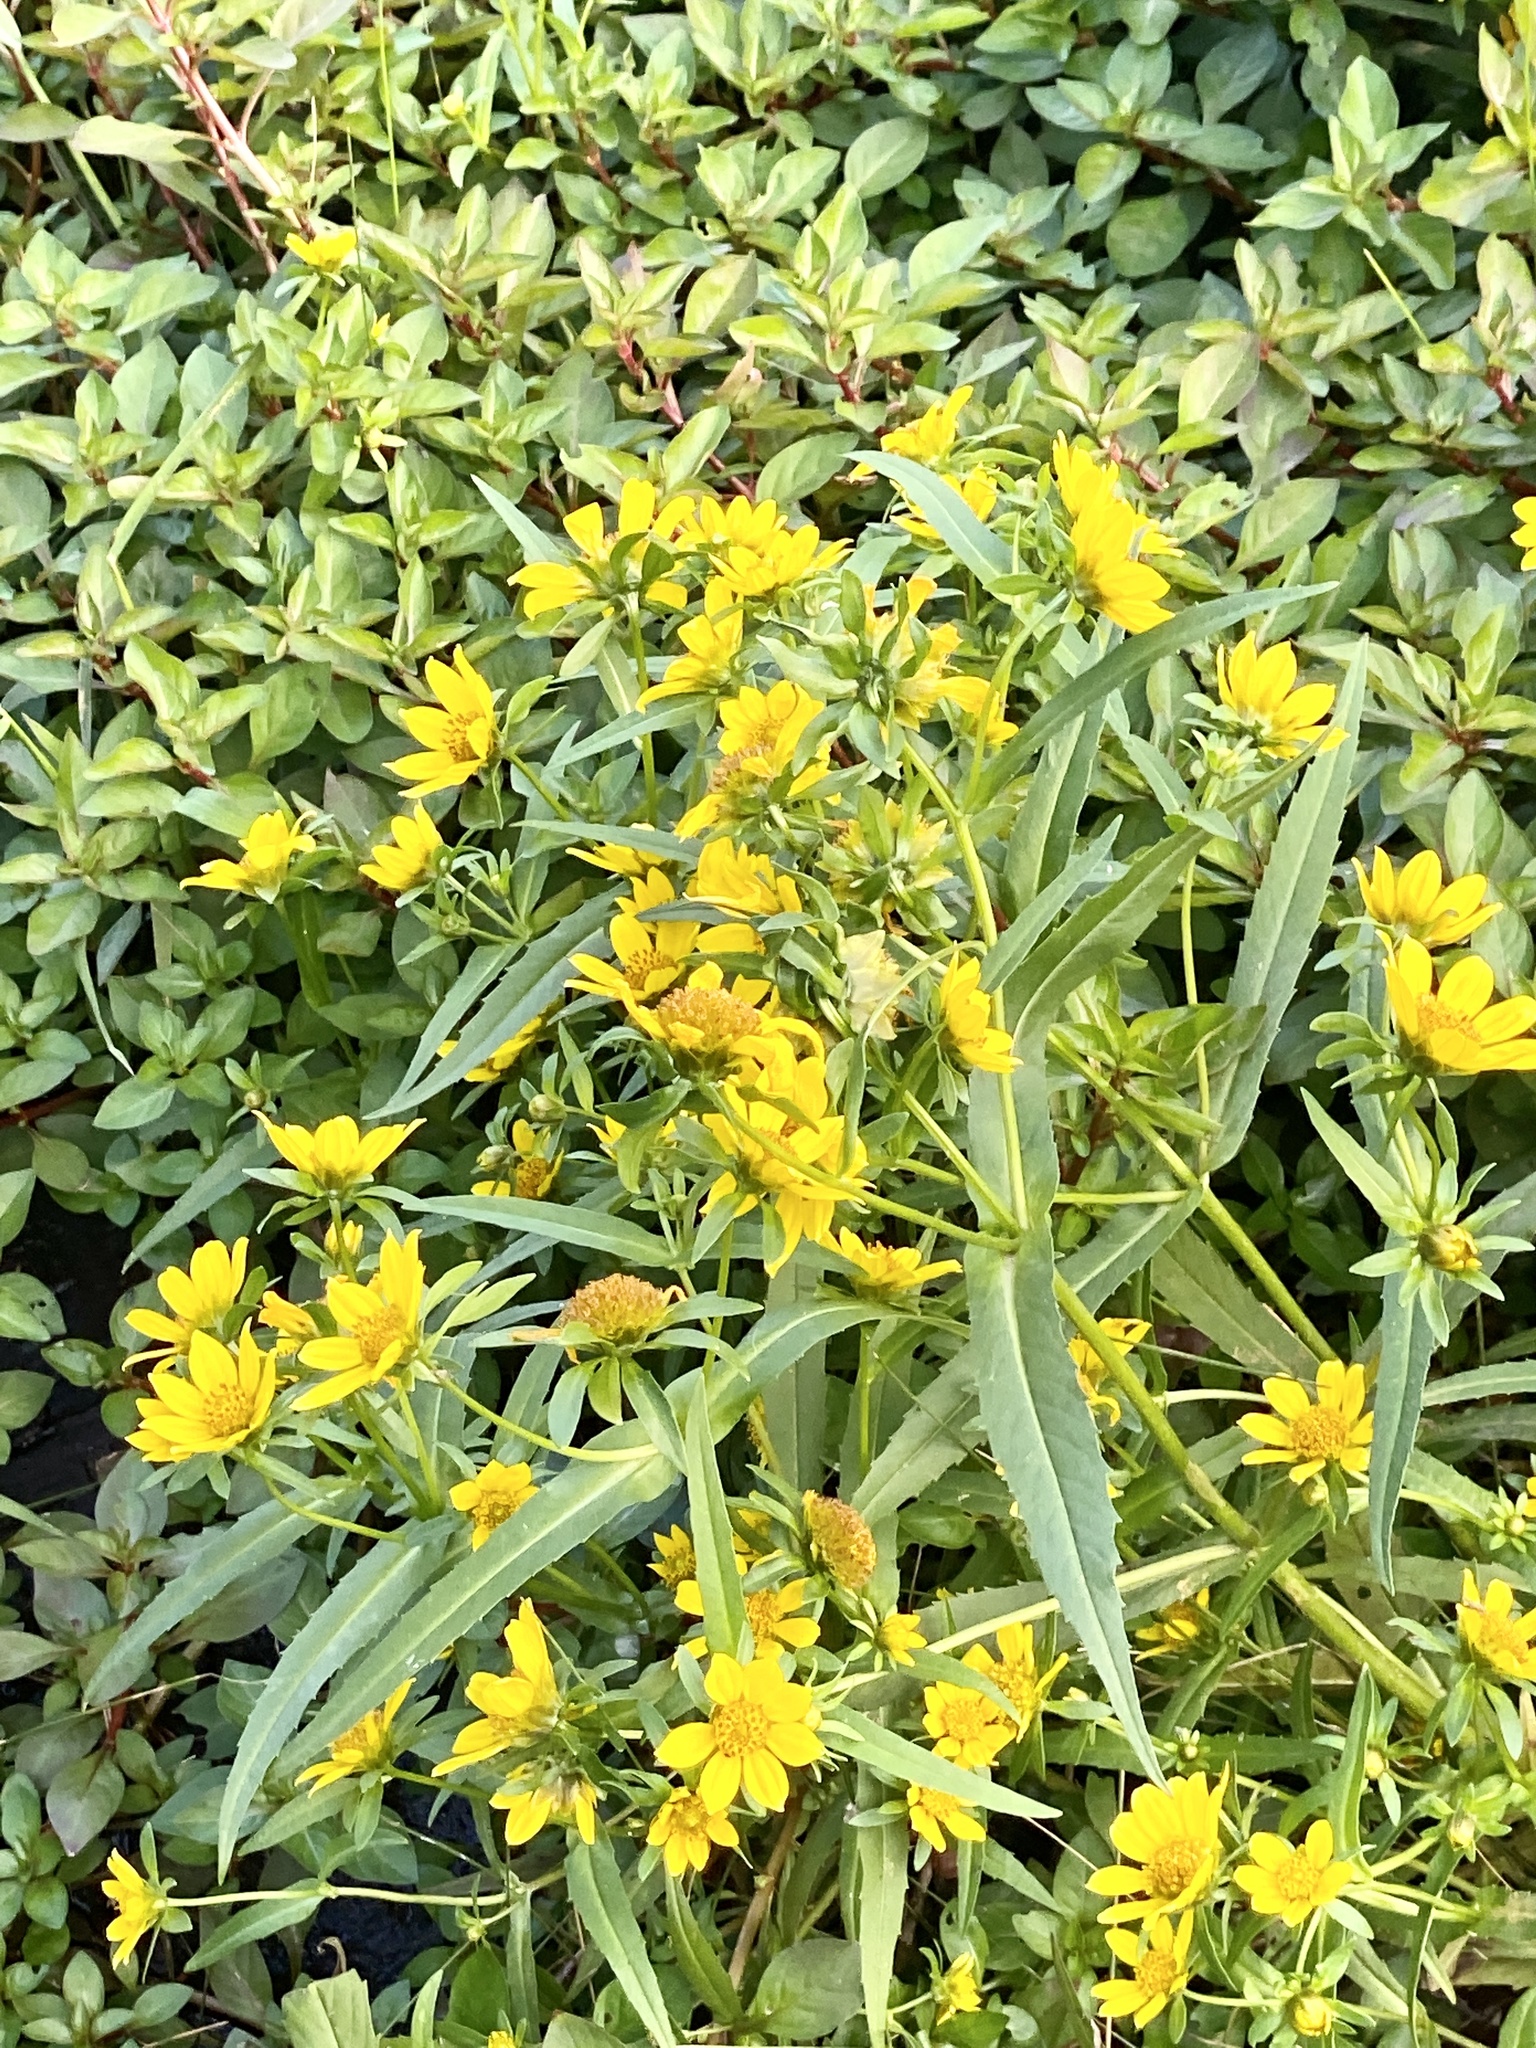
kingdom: Plantae
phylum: Tracheophyta
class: Magnoliopsida
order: Asterales
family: Asteraceae
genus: Bidens
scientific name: Bidens cernua
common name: Nodding bur-marigold
